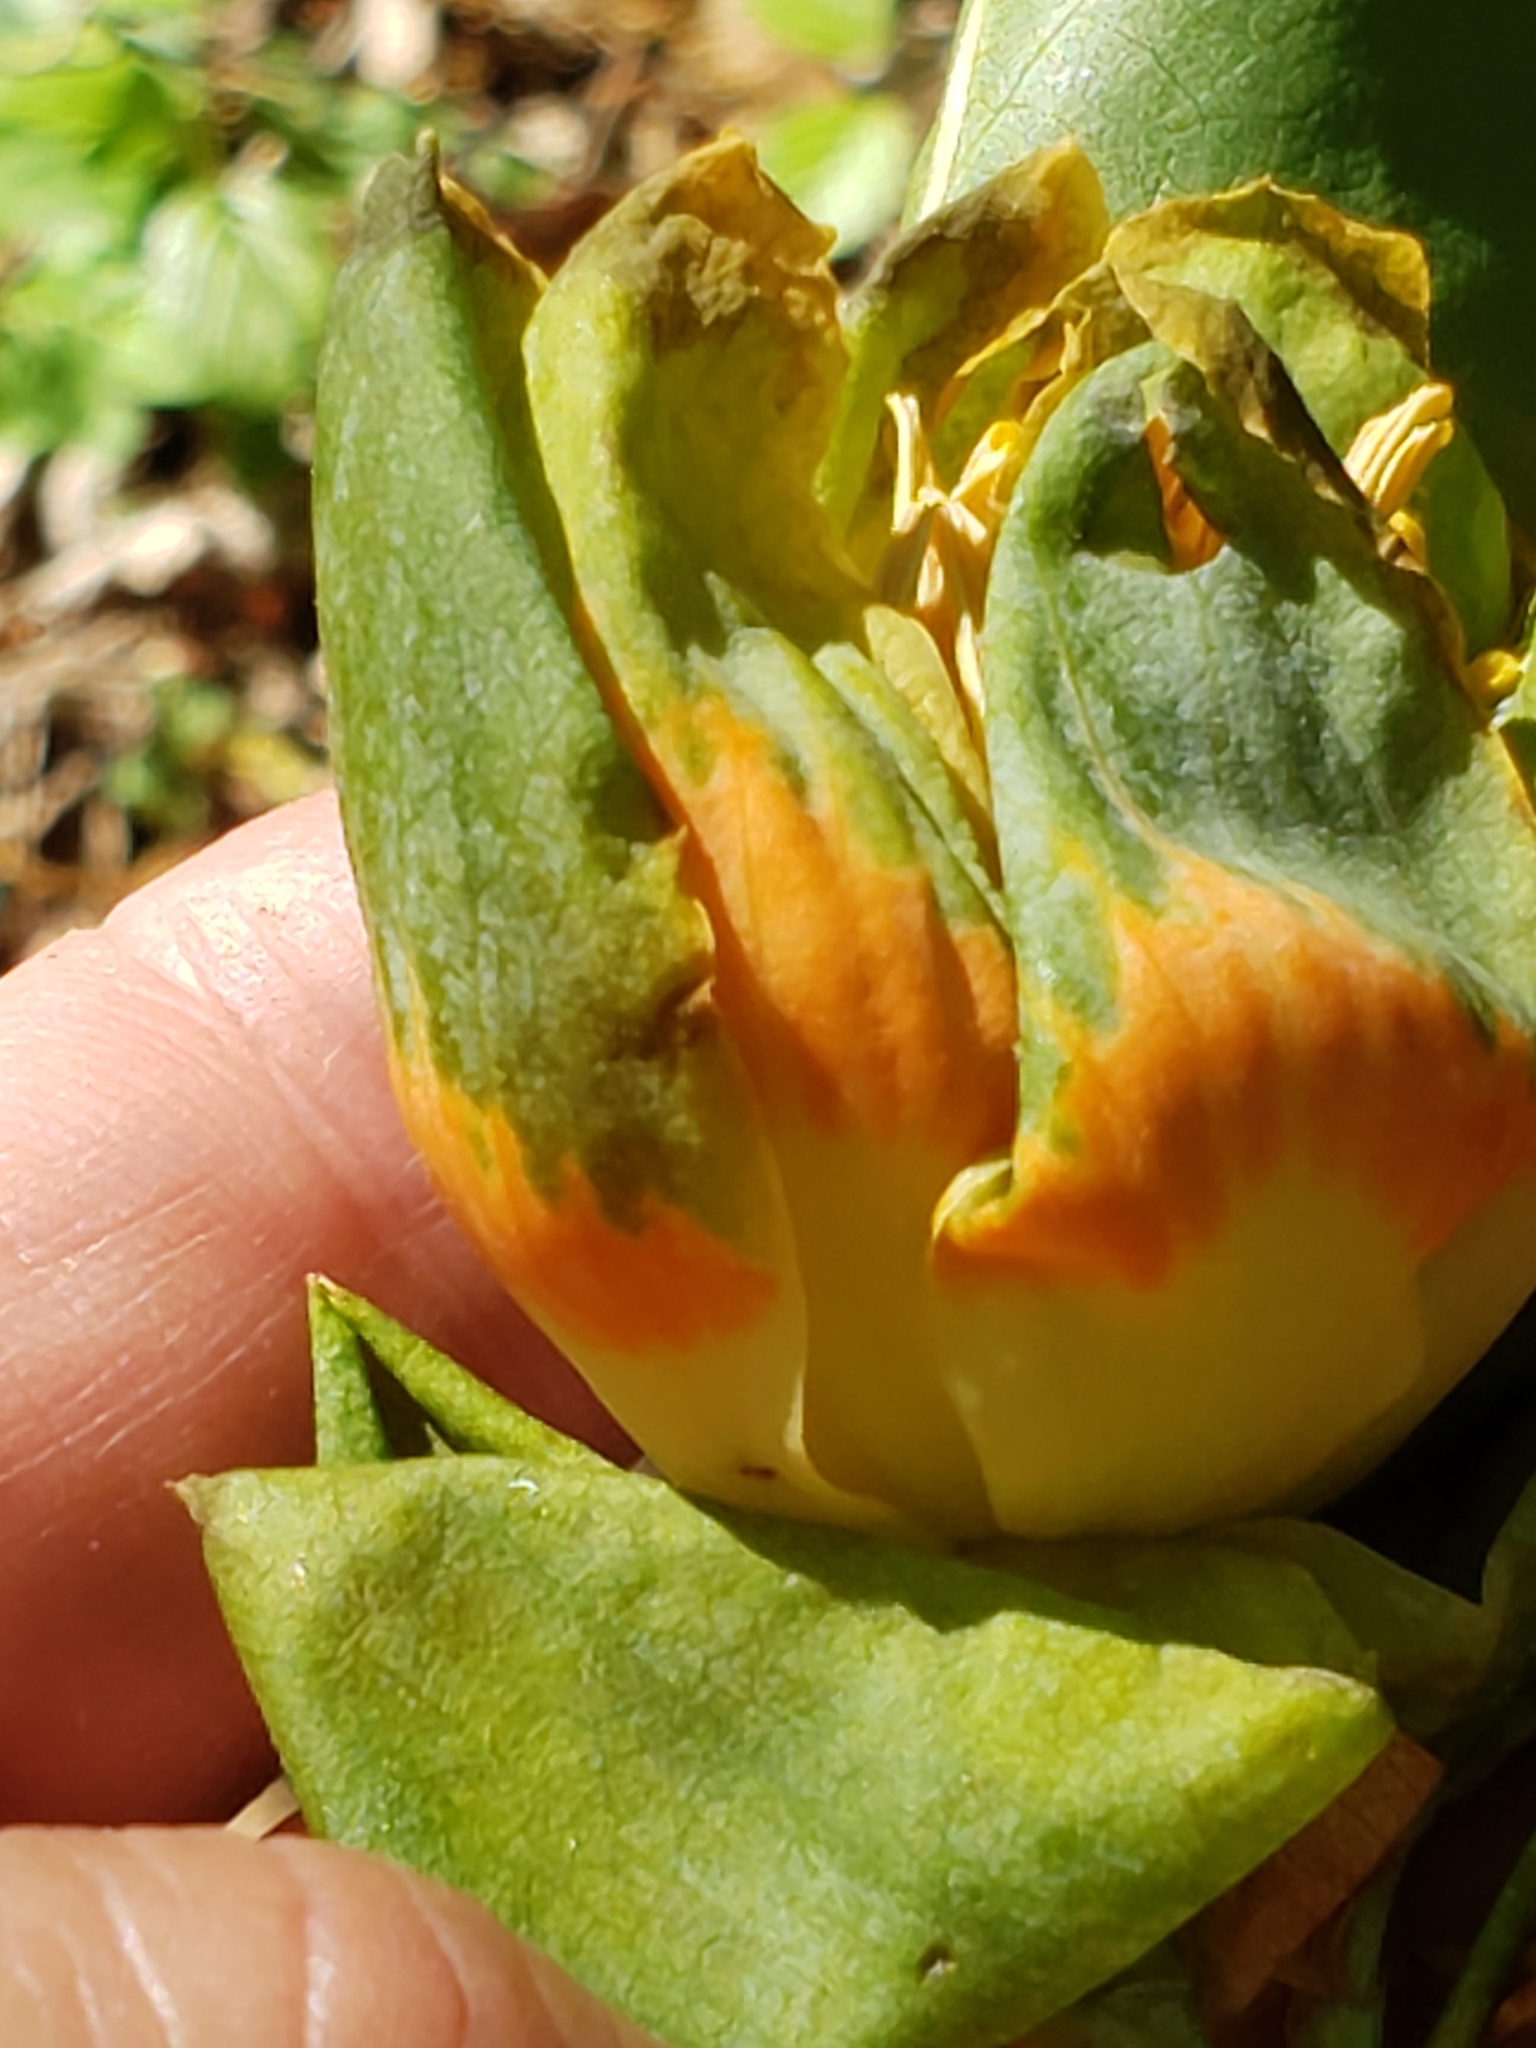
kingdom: Plantae
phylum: Tracheophyta
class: Magnoliopsida
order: Magnoliales
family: Magnoliaceae
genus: Liriodendron
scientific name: Liriodendron tulipifera
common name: Tulip tree
